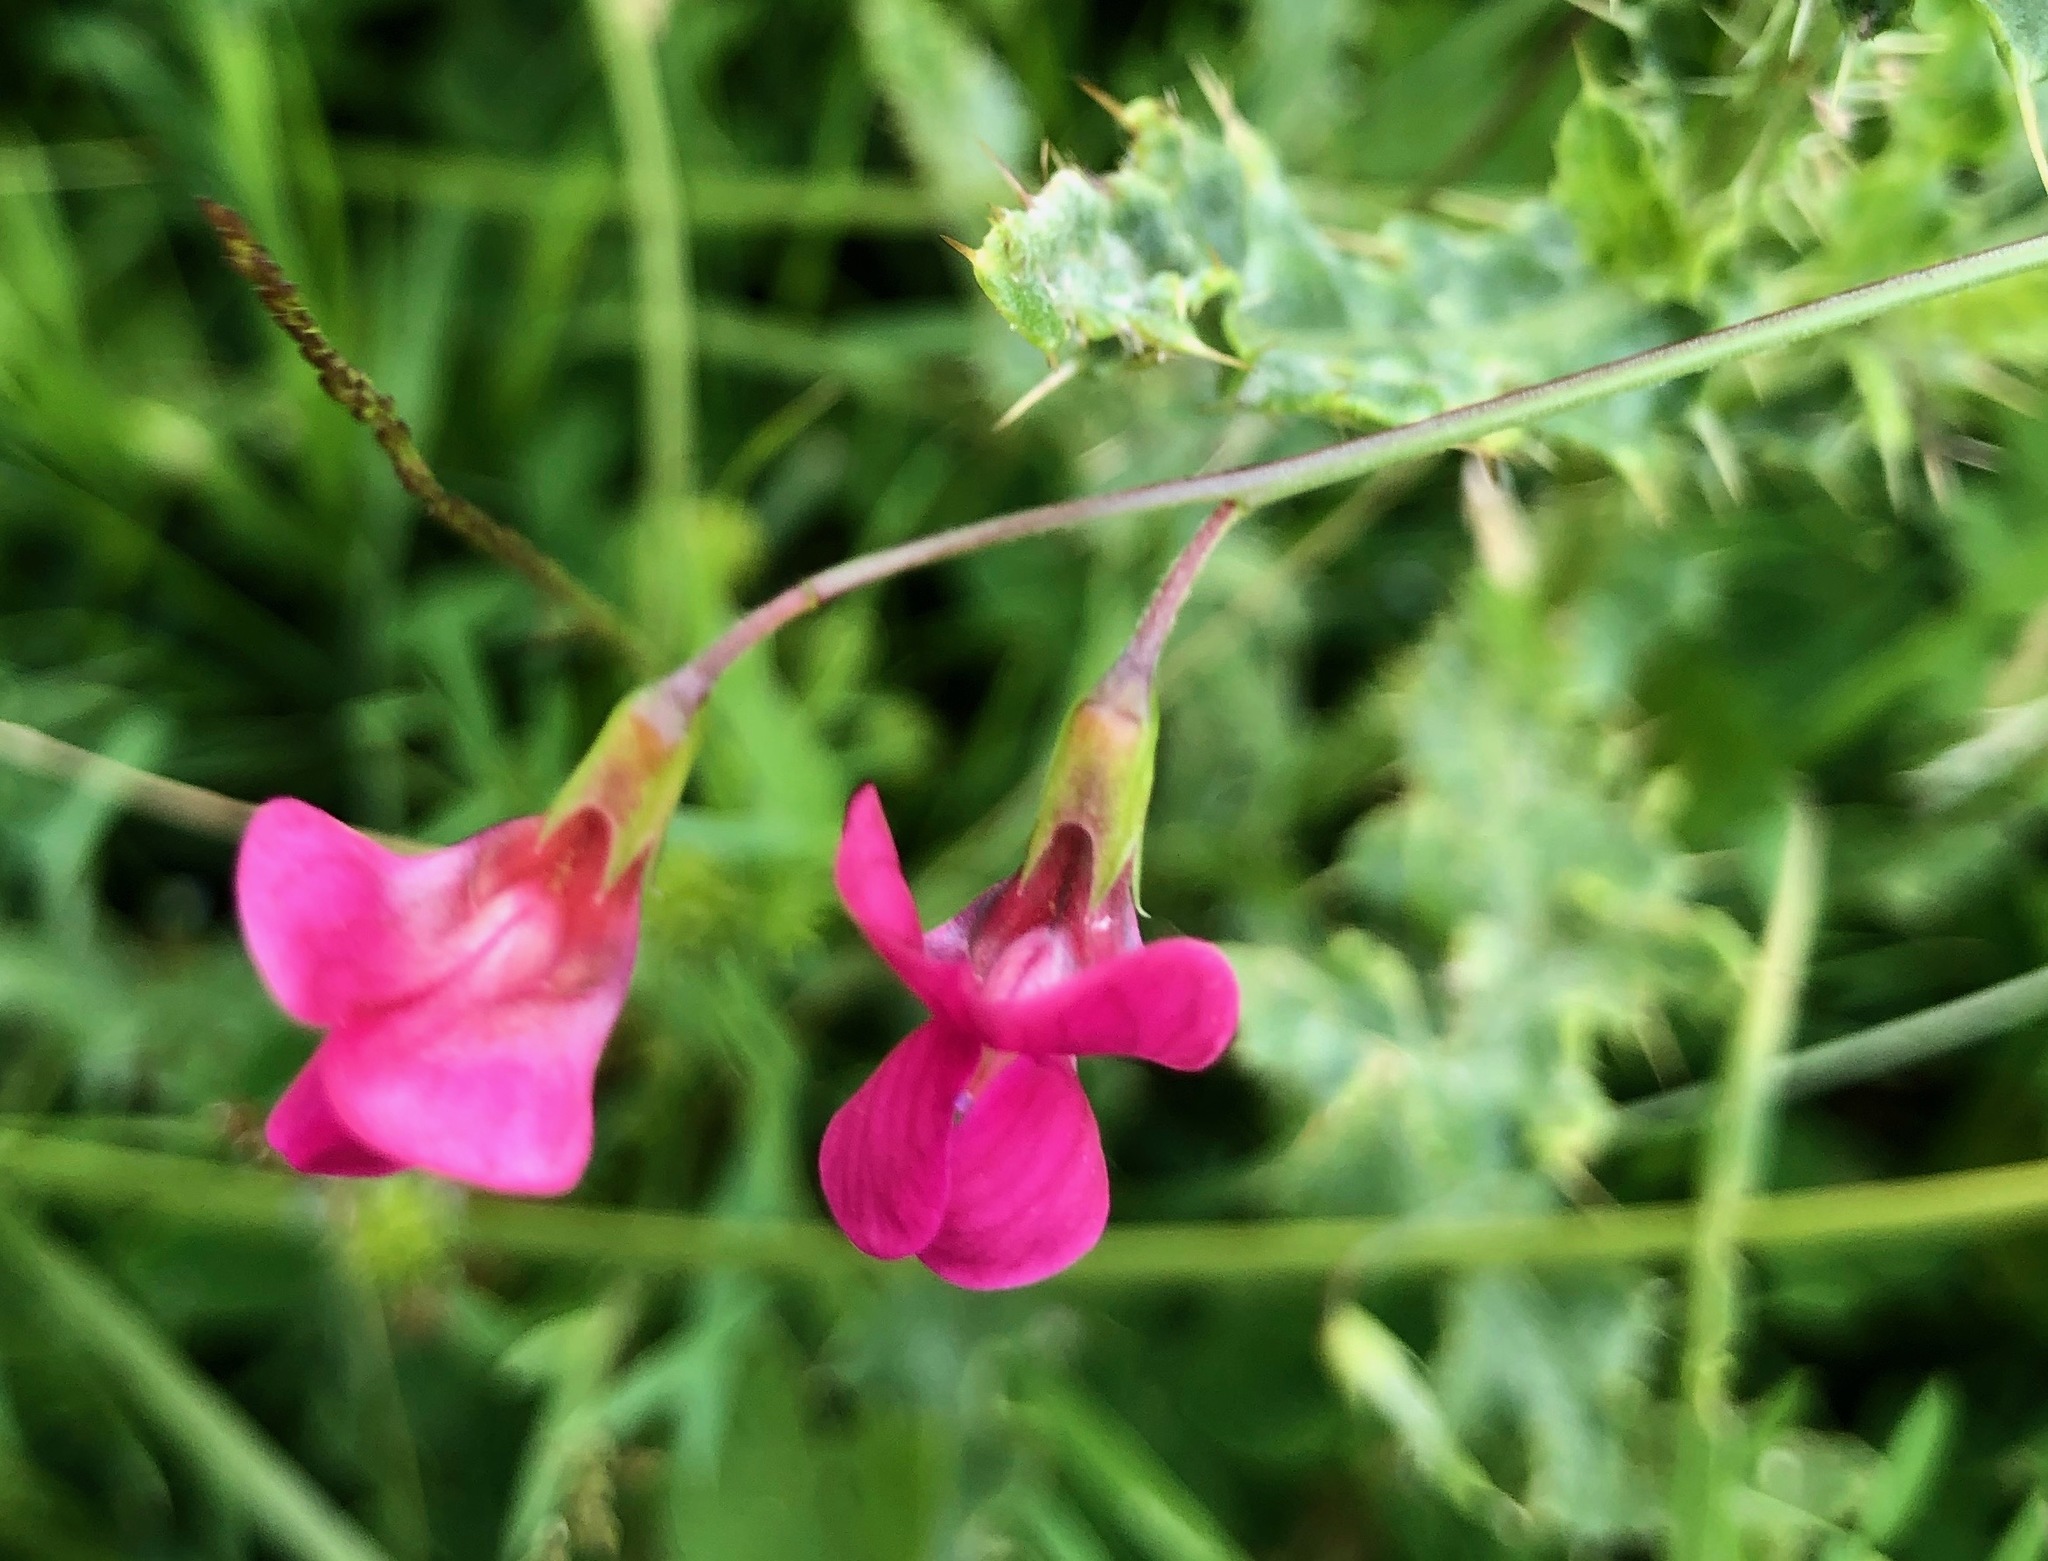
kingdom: Plantae
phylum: Tracheophyta
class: Magnoliopsida
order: Fabales
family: Fabaceae
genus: Lathyrus
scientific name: Lathyrus nissolia
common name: Grass vetchling
